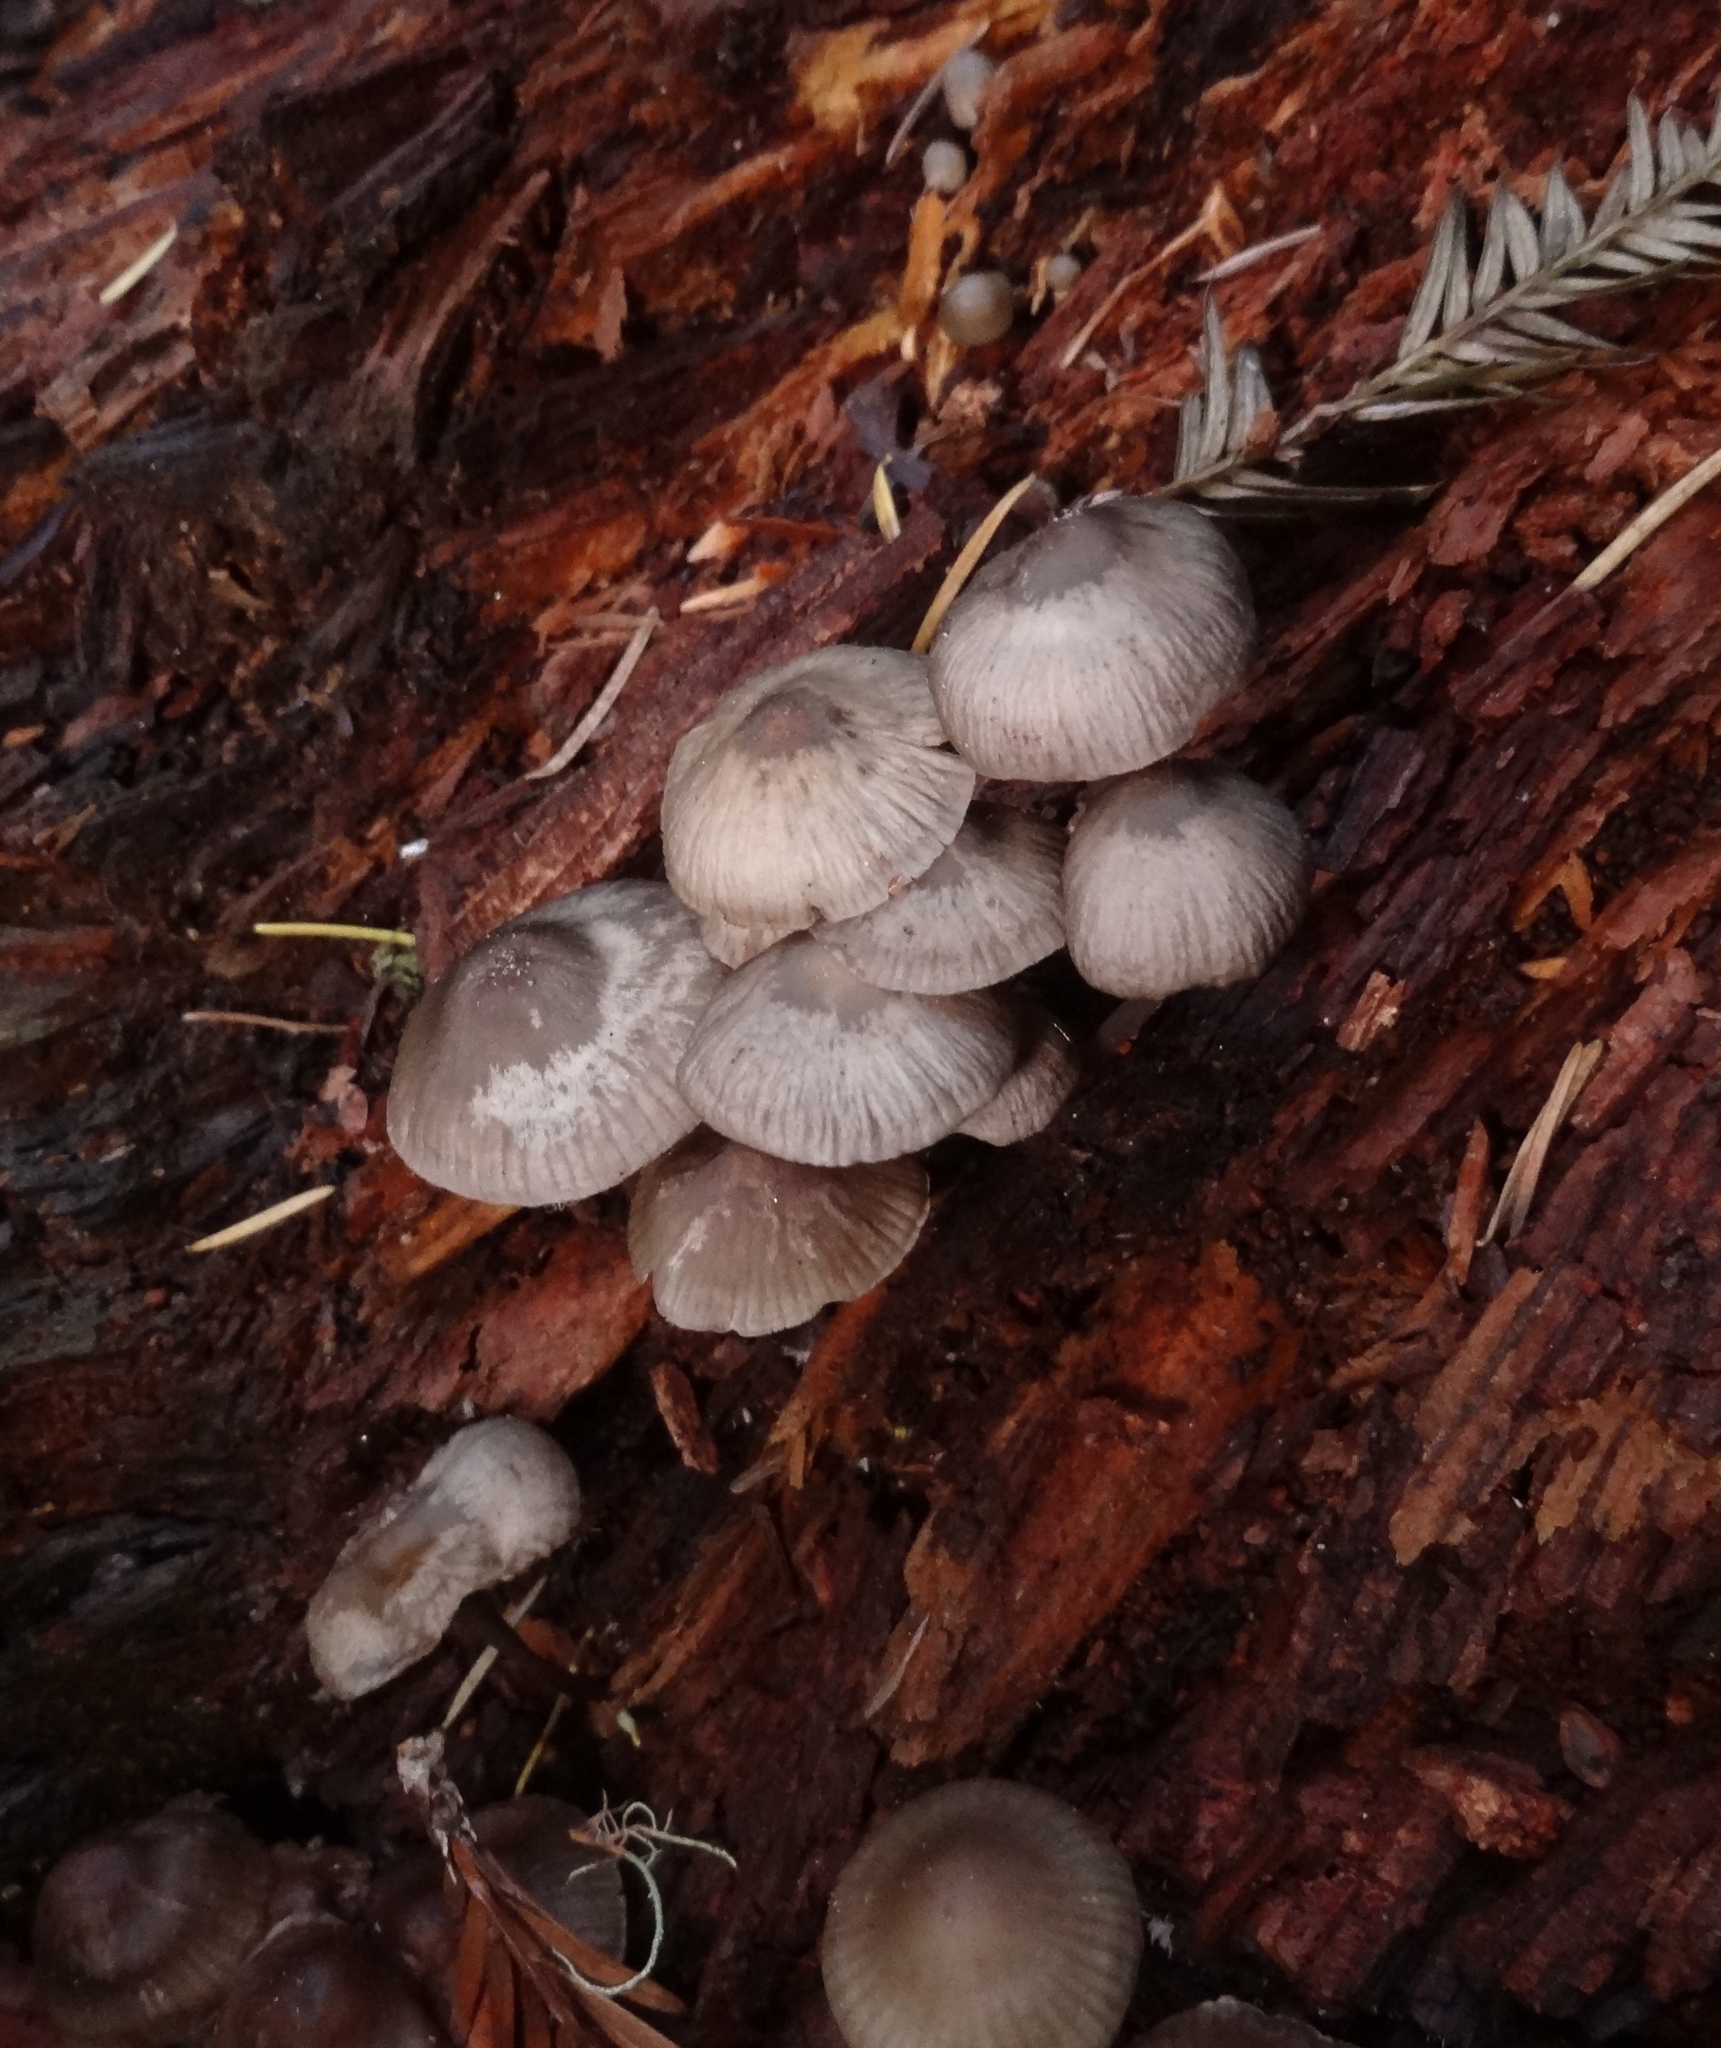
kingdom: Fungi
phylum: Basidiomycota
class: Agaricomycetes
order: Agaricales
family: Mycenaceae
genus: Mycena
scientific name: Mycena maculata
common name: Stained bonnet
